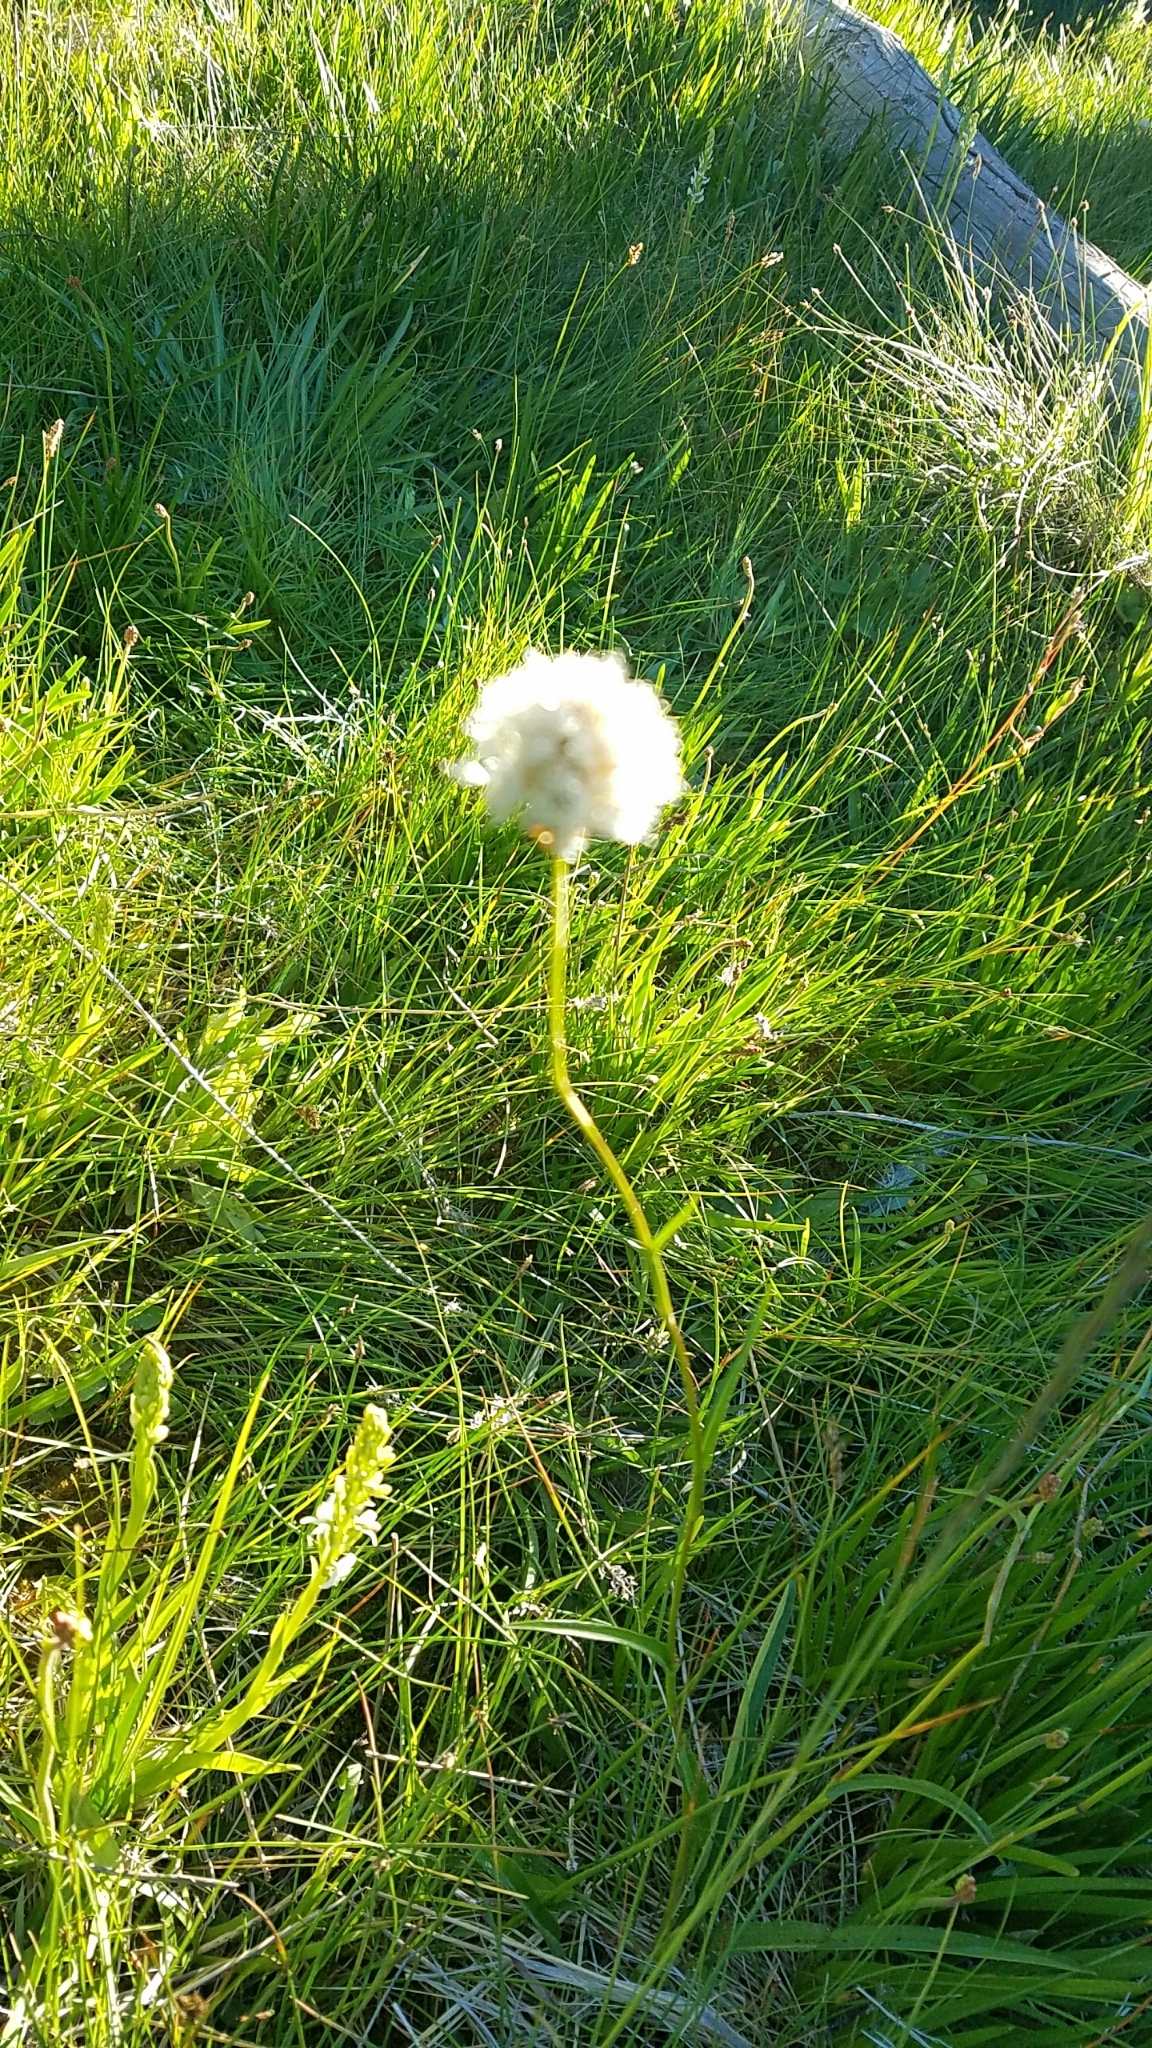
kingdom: Plantae
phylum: Tracheophyta
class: Magnoliopsida
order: Caryophyllales
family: Polygonaceae
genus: Bistorta
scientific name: Bistorta bistortoides
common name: American bistort
